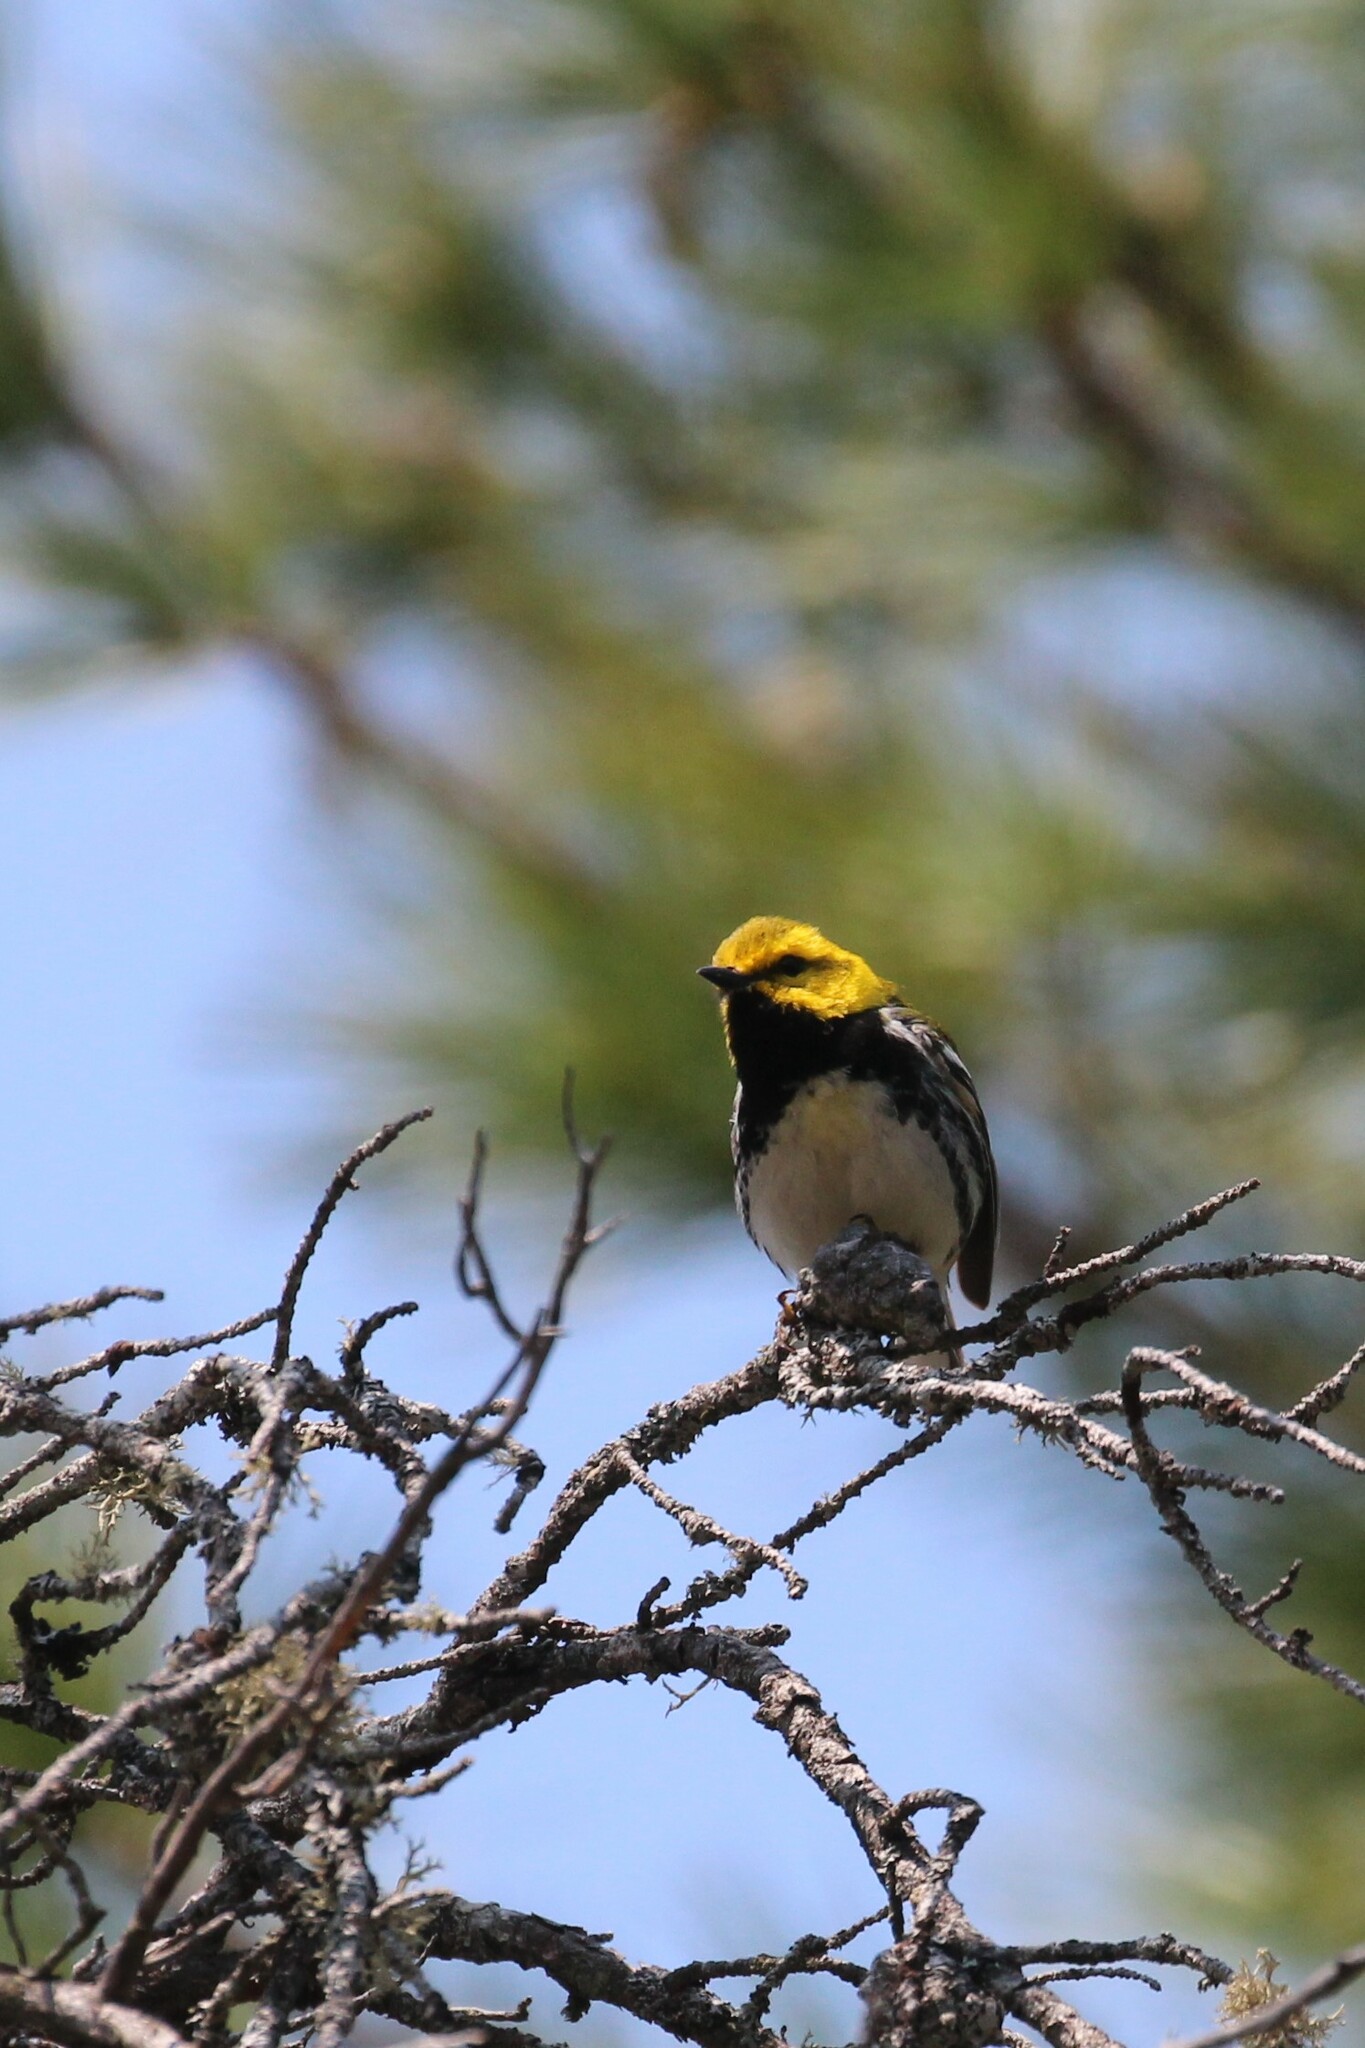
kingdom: Animalia
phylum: Chordata
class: Aves
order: Passeriformes
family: Parulidae
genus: Setophaga
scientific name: Setophaga virens
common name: Black-throated green warbler
